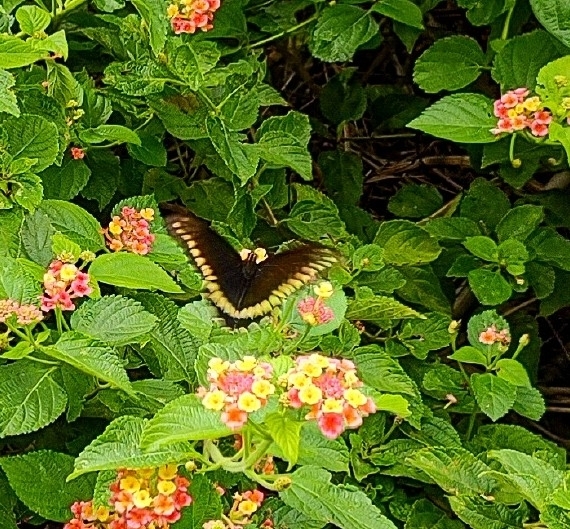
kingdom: Animalia
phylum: Arthropoda
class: Insecta
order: Lepidoptera
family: Papilionidae
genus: Battus
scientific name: Battus polydamas
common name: Polydamas swallowtail
